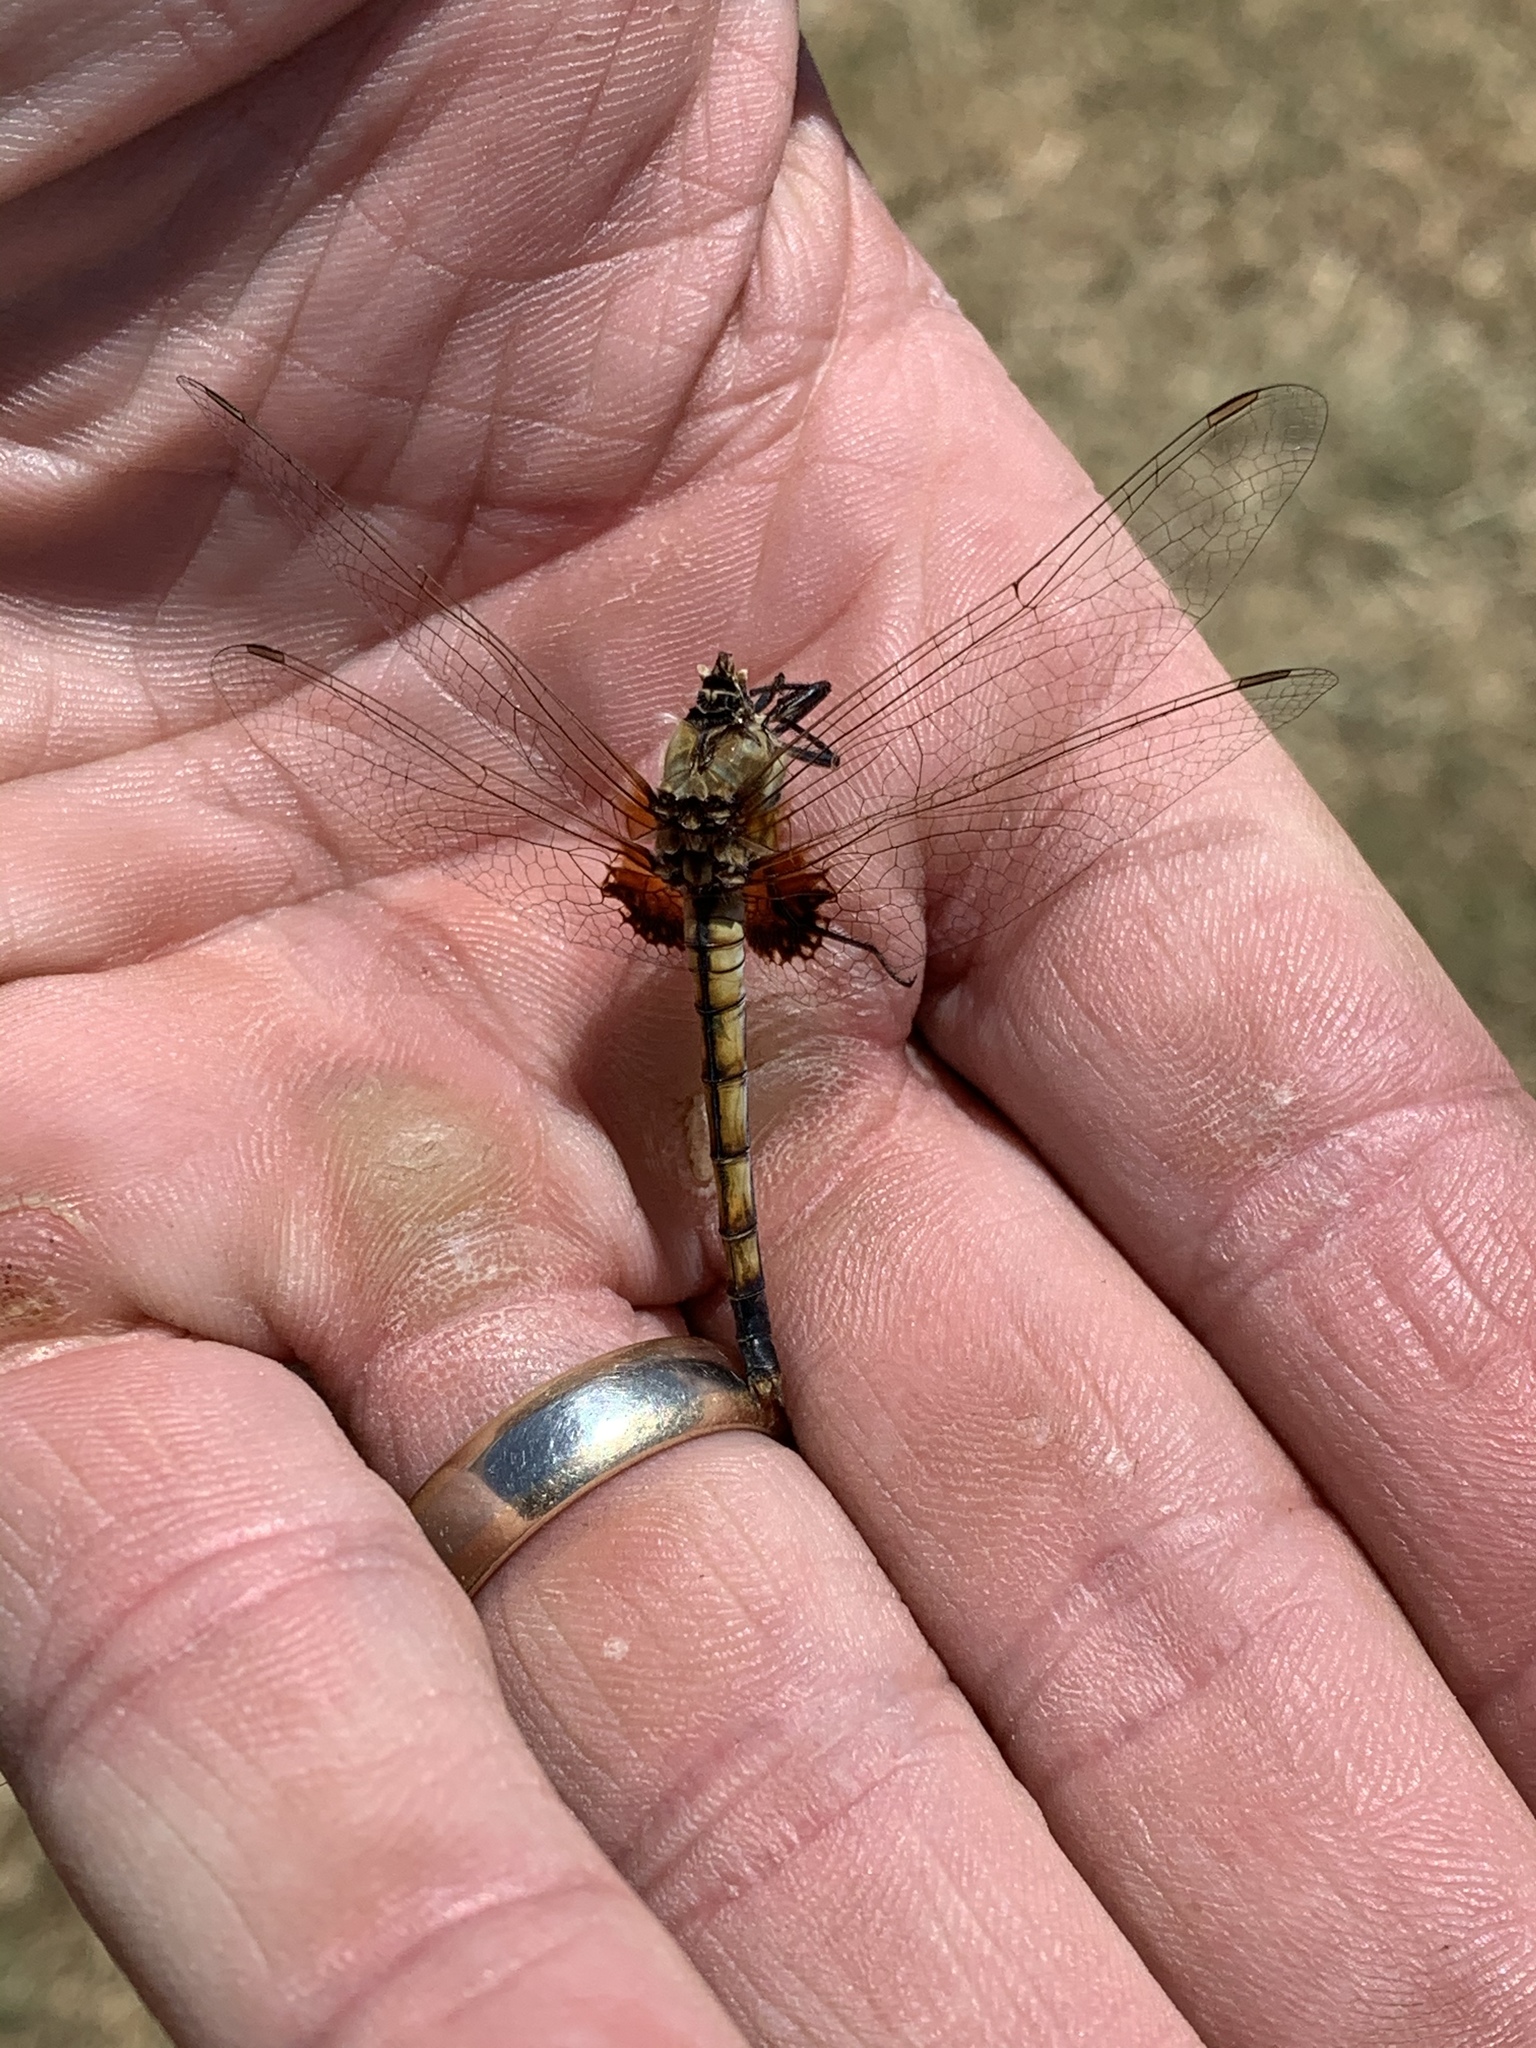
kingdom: Animalia
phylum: Arthropoda
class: Insecta
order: Odonata
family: Libellulidae
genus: Macrodiplax
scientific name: Macrodiplax balteata
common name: Marl pennant
